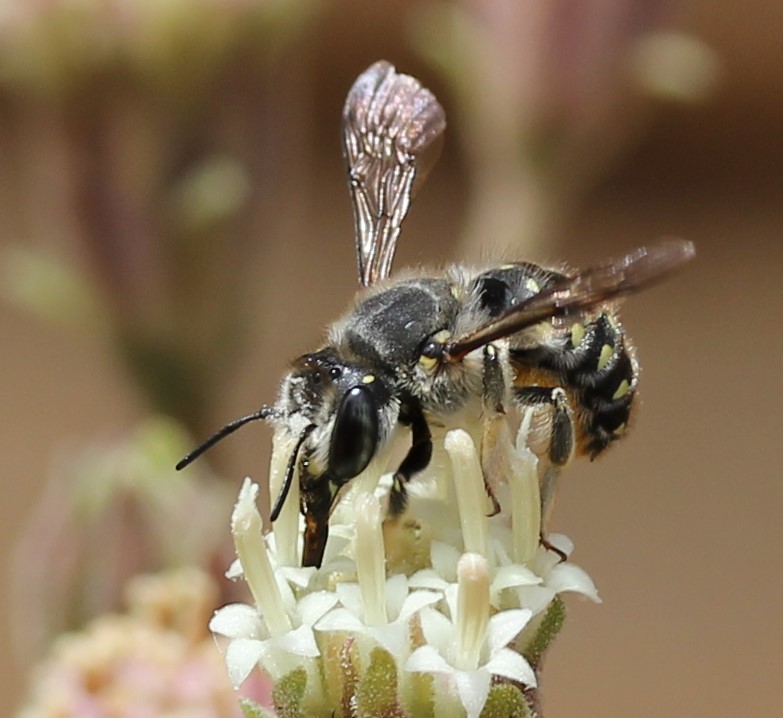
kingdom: Animalia
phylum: Arthropoda
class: Insecta
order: Hymenoptera
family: Megachilidae
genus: Anthidium
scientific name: Anthidium maculosum
